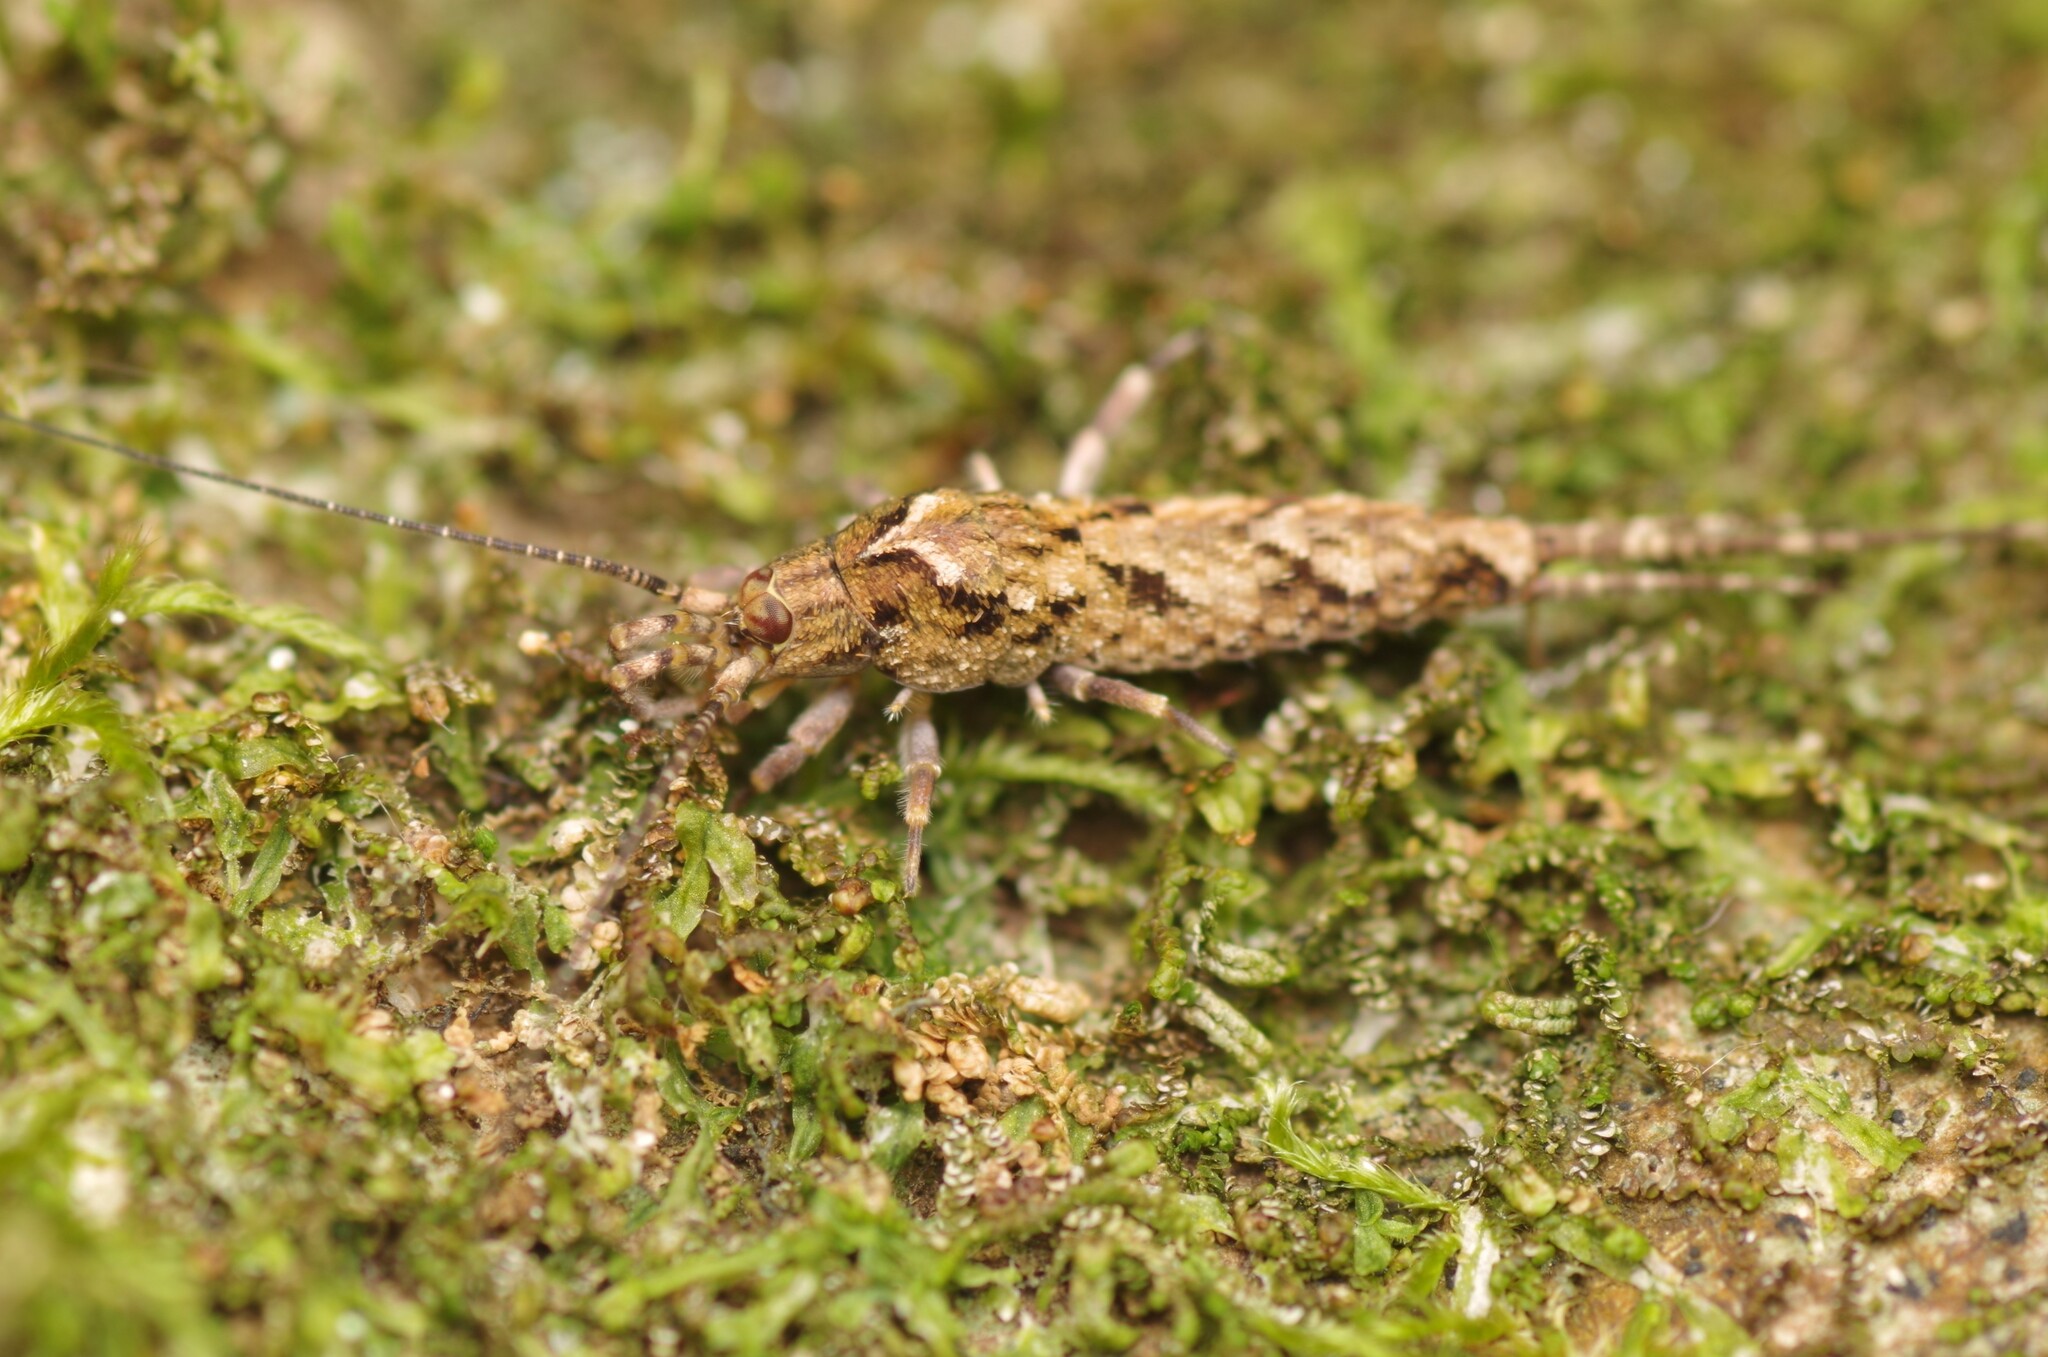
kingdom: Animalia
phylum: Arthropoda
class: Insecta
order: Archaeognatha
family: Machilidae
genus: Lepismachilis
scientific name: Lepismachilis y-signata
